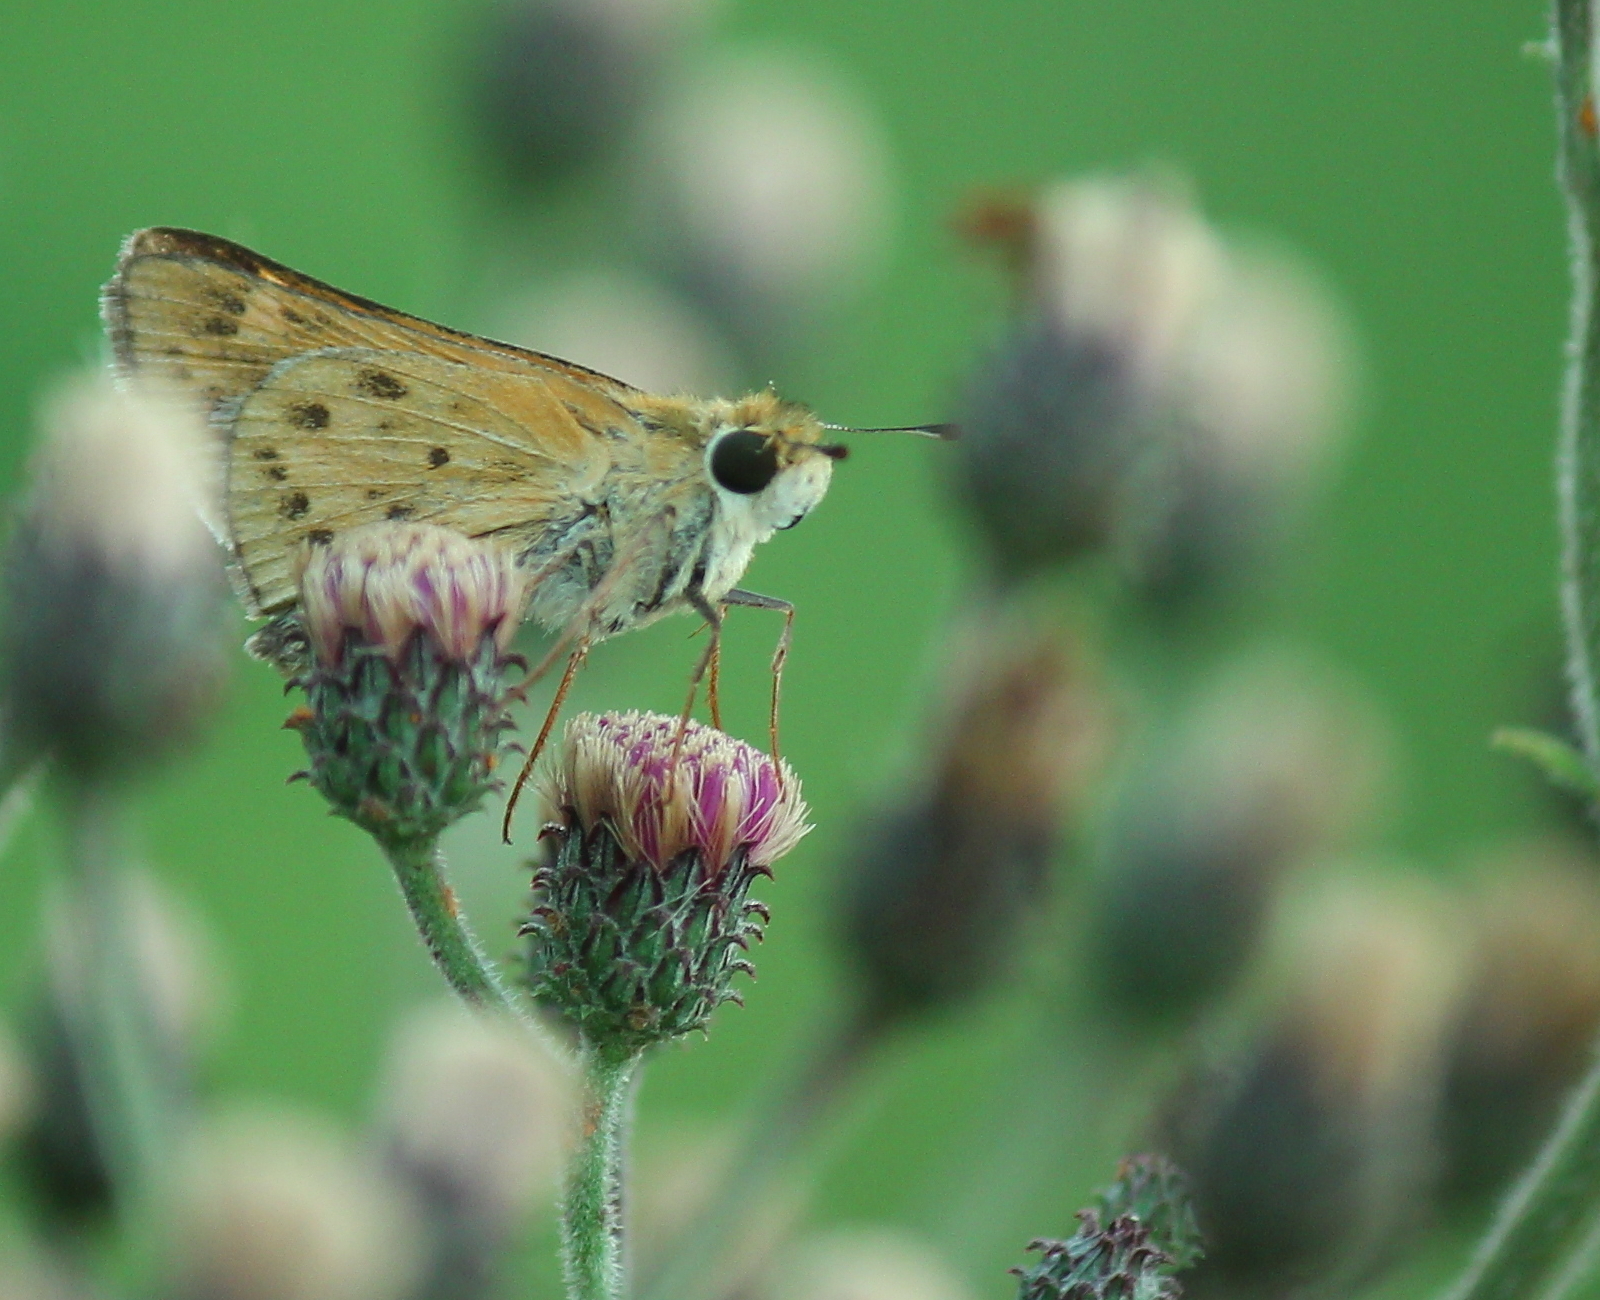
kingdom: Animalia
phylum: Arthropoda
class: Insecta
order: Lepidoptera
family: Hesperiidae
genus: Hylephila
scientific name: Hylephila phyleus
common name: Fiery skipper
